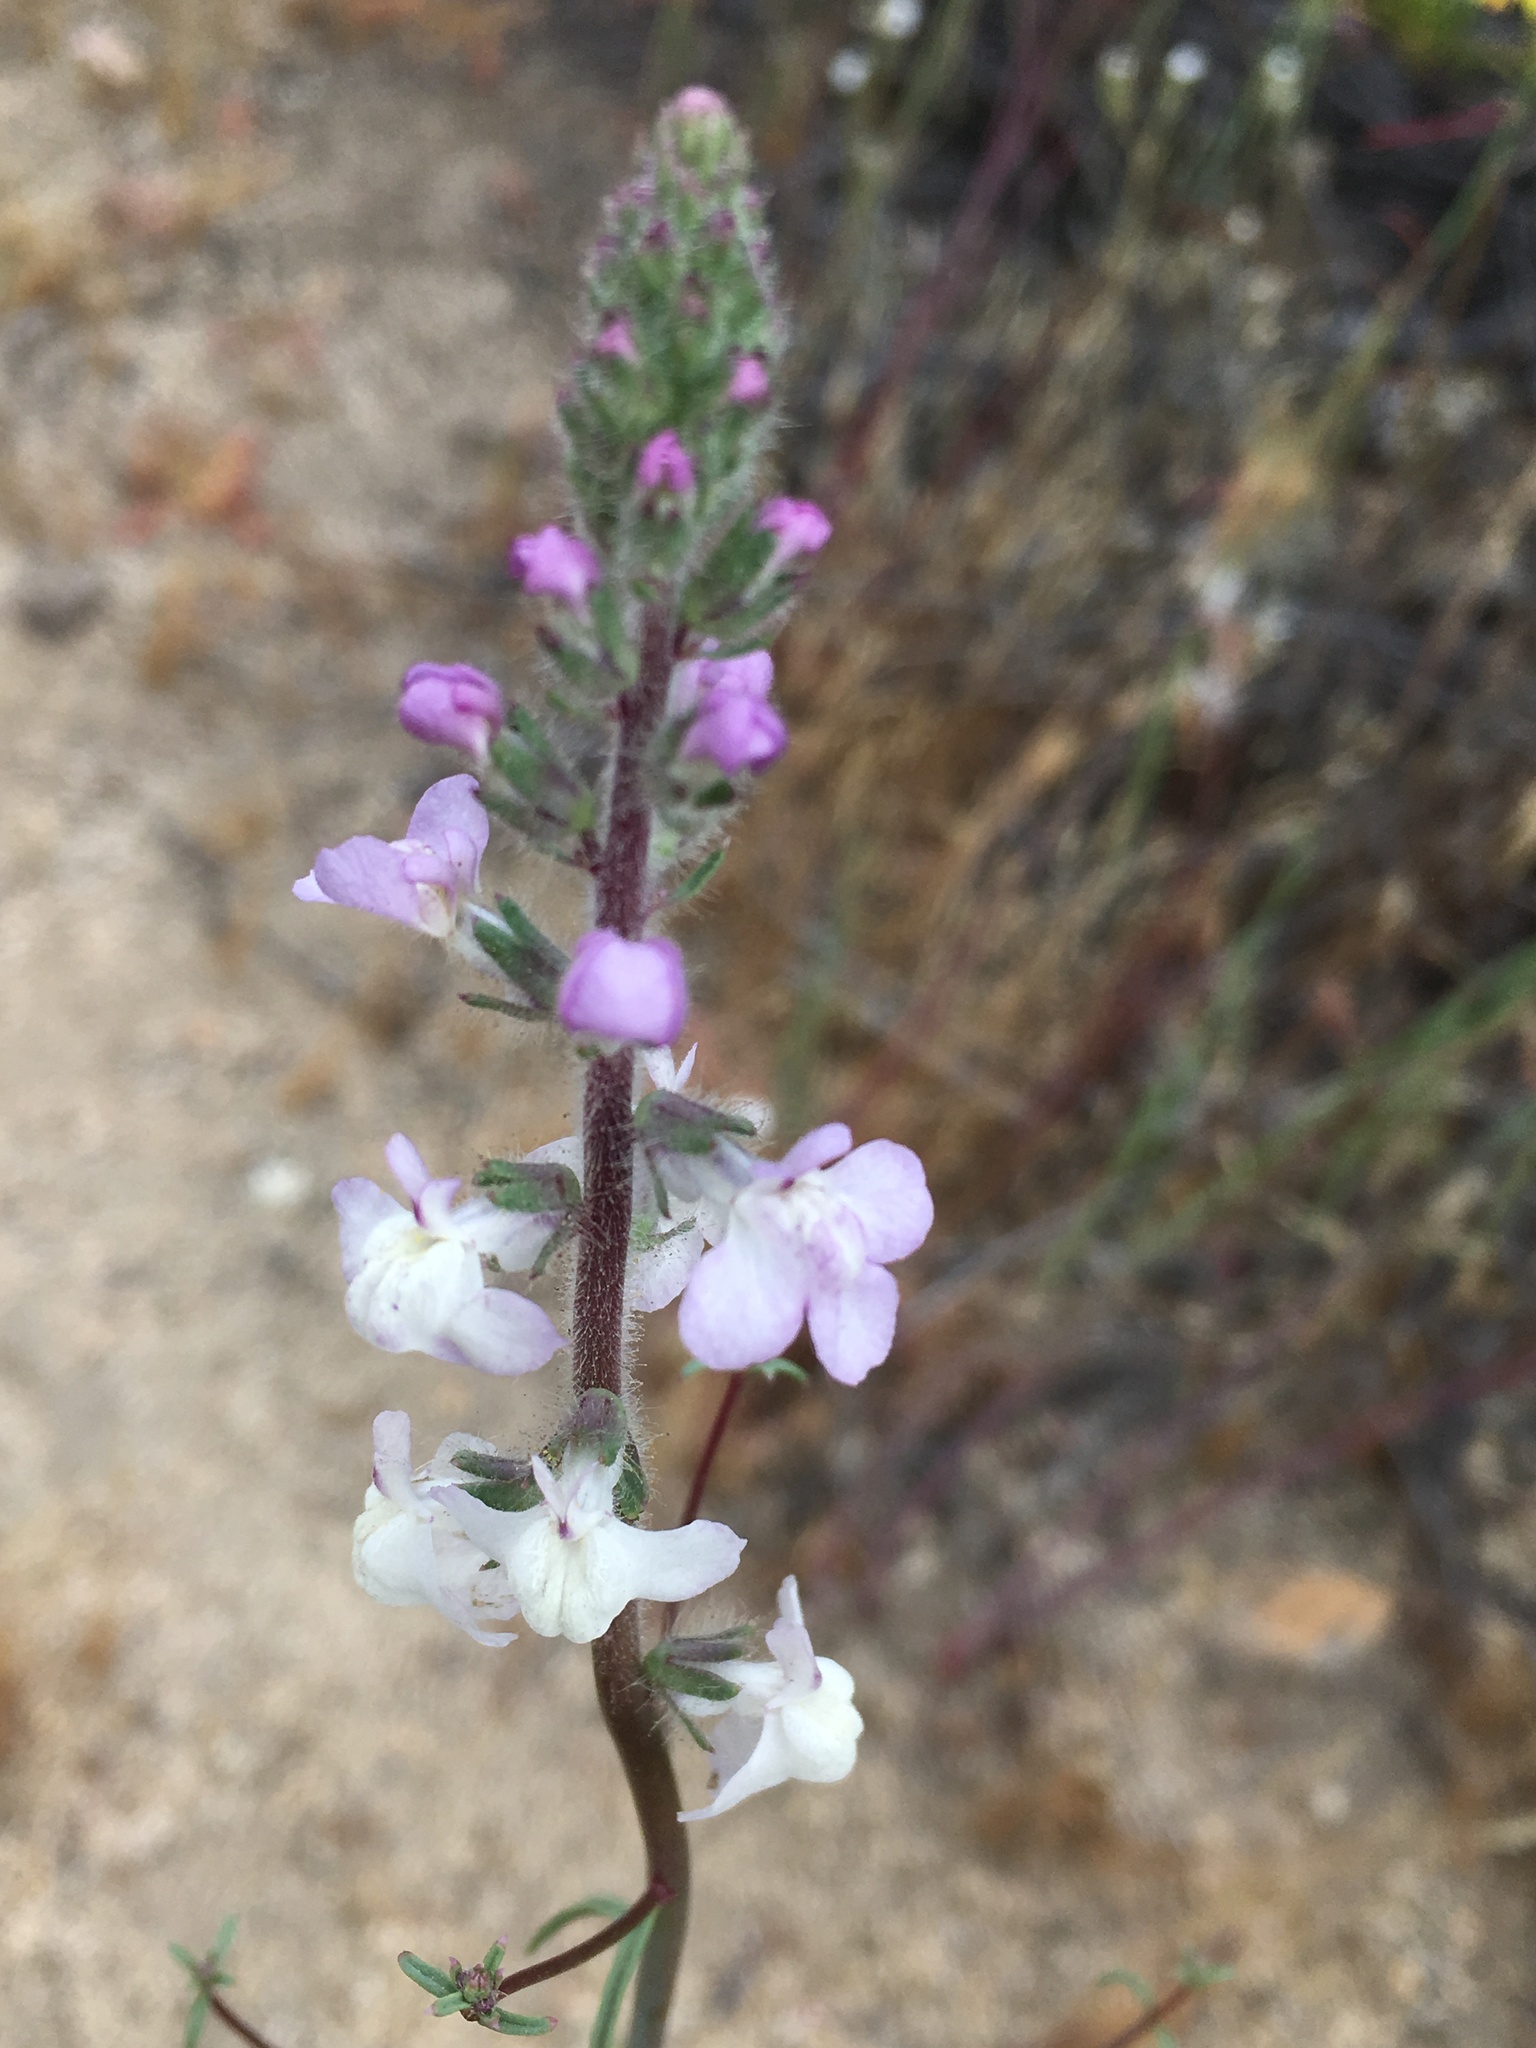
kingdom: Plantae
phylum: Tracheophyta
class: Magnoliopsida
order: Lamiales
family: Plantaginaceae
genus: Sairocarpus
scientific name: Sairocarpus coulterianus
